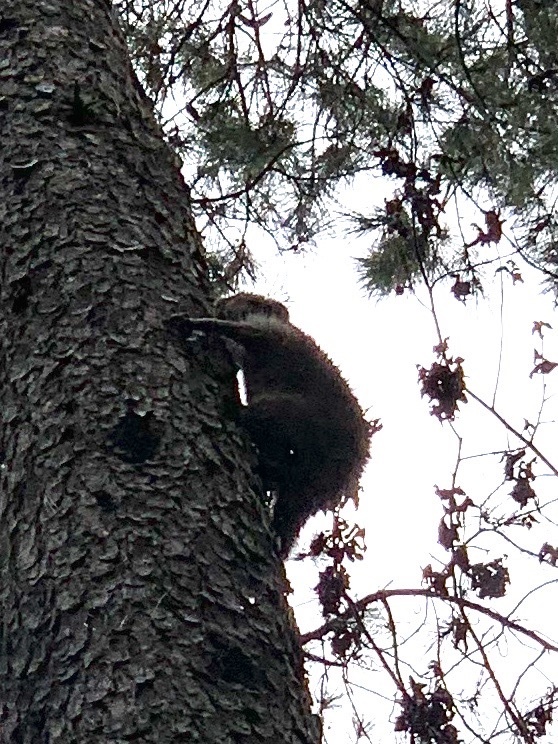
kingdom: Animalia
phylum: Chordata
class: Mammalia
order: Carnivora
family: Procyonidae
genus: Procyon
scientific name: Procyon lotor
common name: Raccoon
